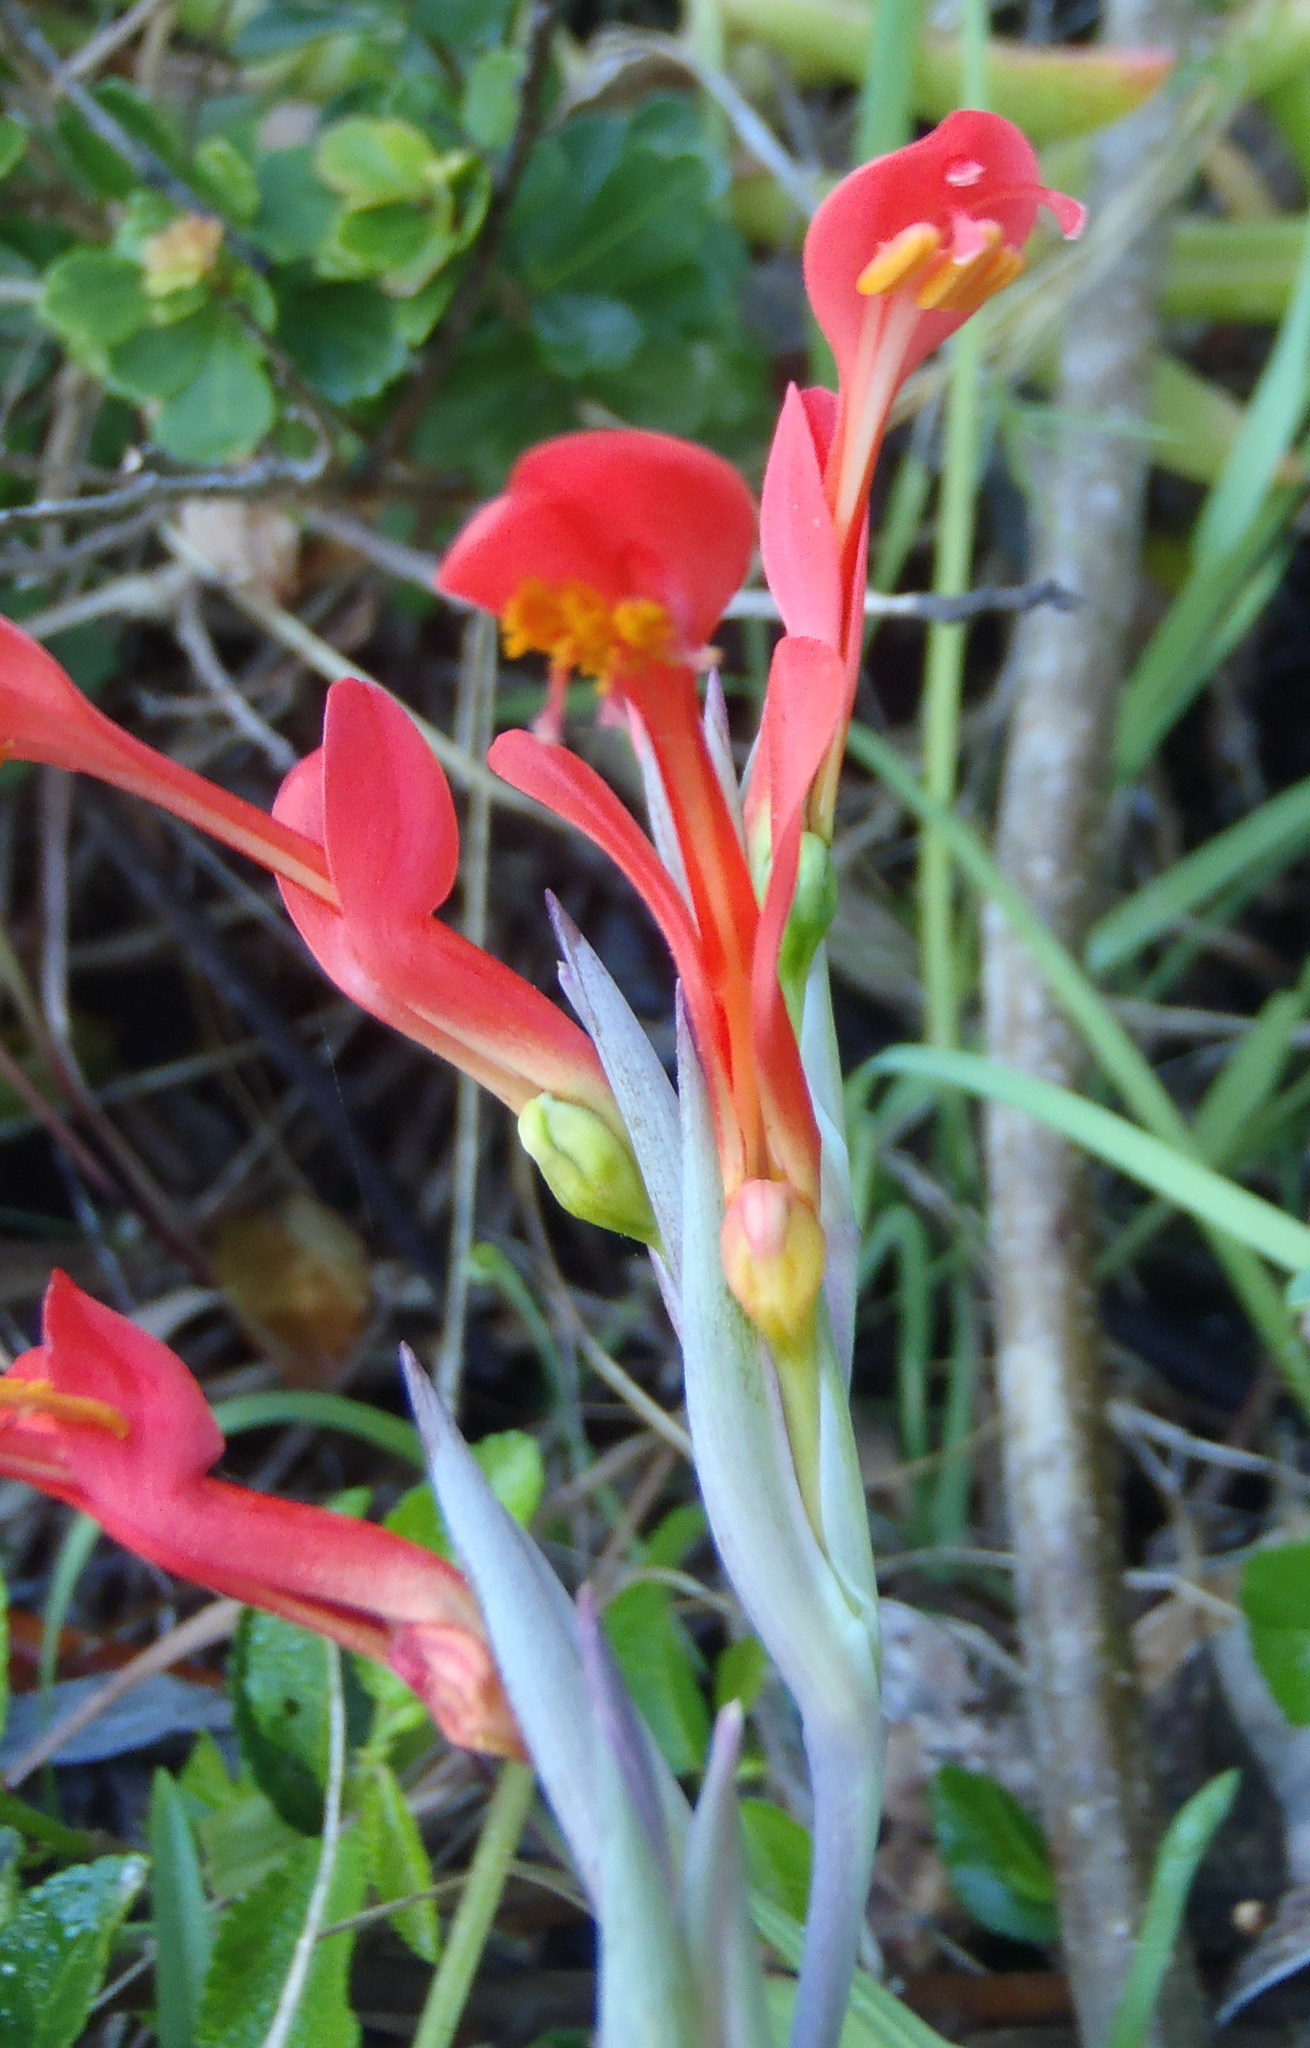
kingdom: Plantae
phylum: Tracheophyta
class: Liliopsida
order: Asparagales
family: Iridaceae
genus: Gladiolus
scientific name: Gladiolus cunonius
